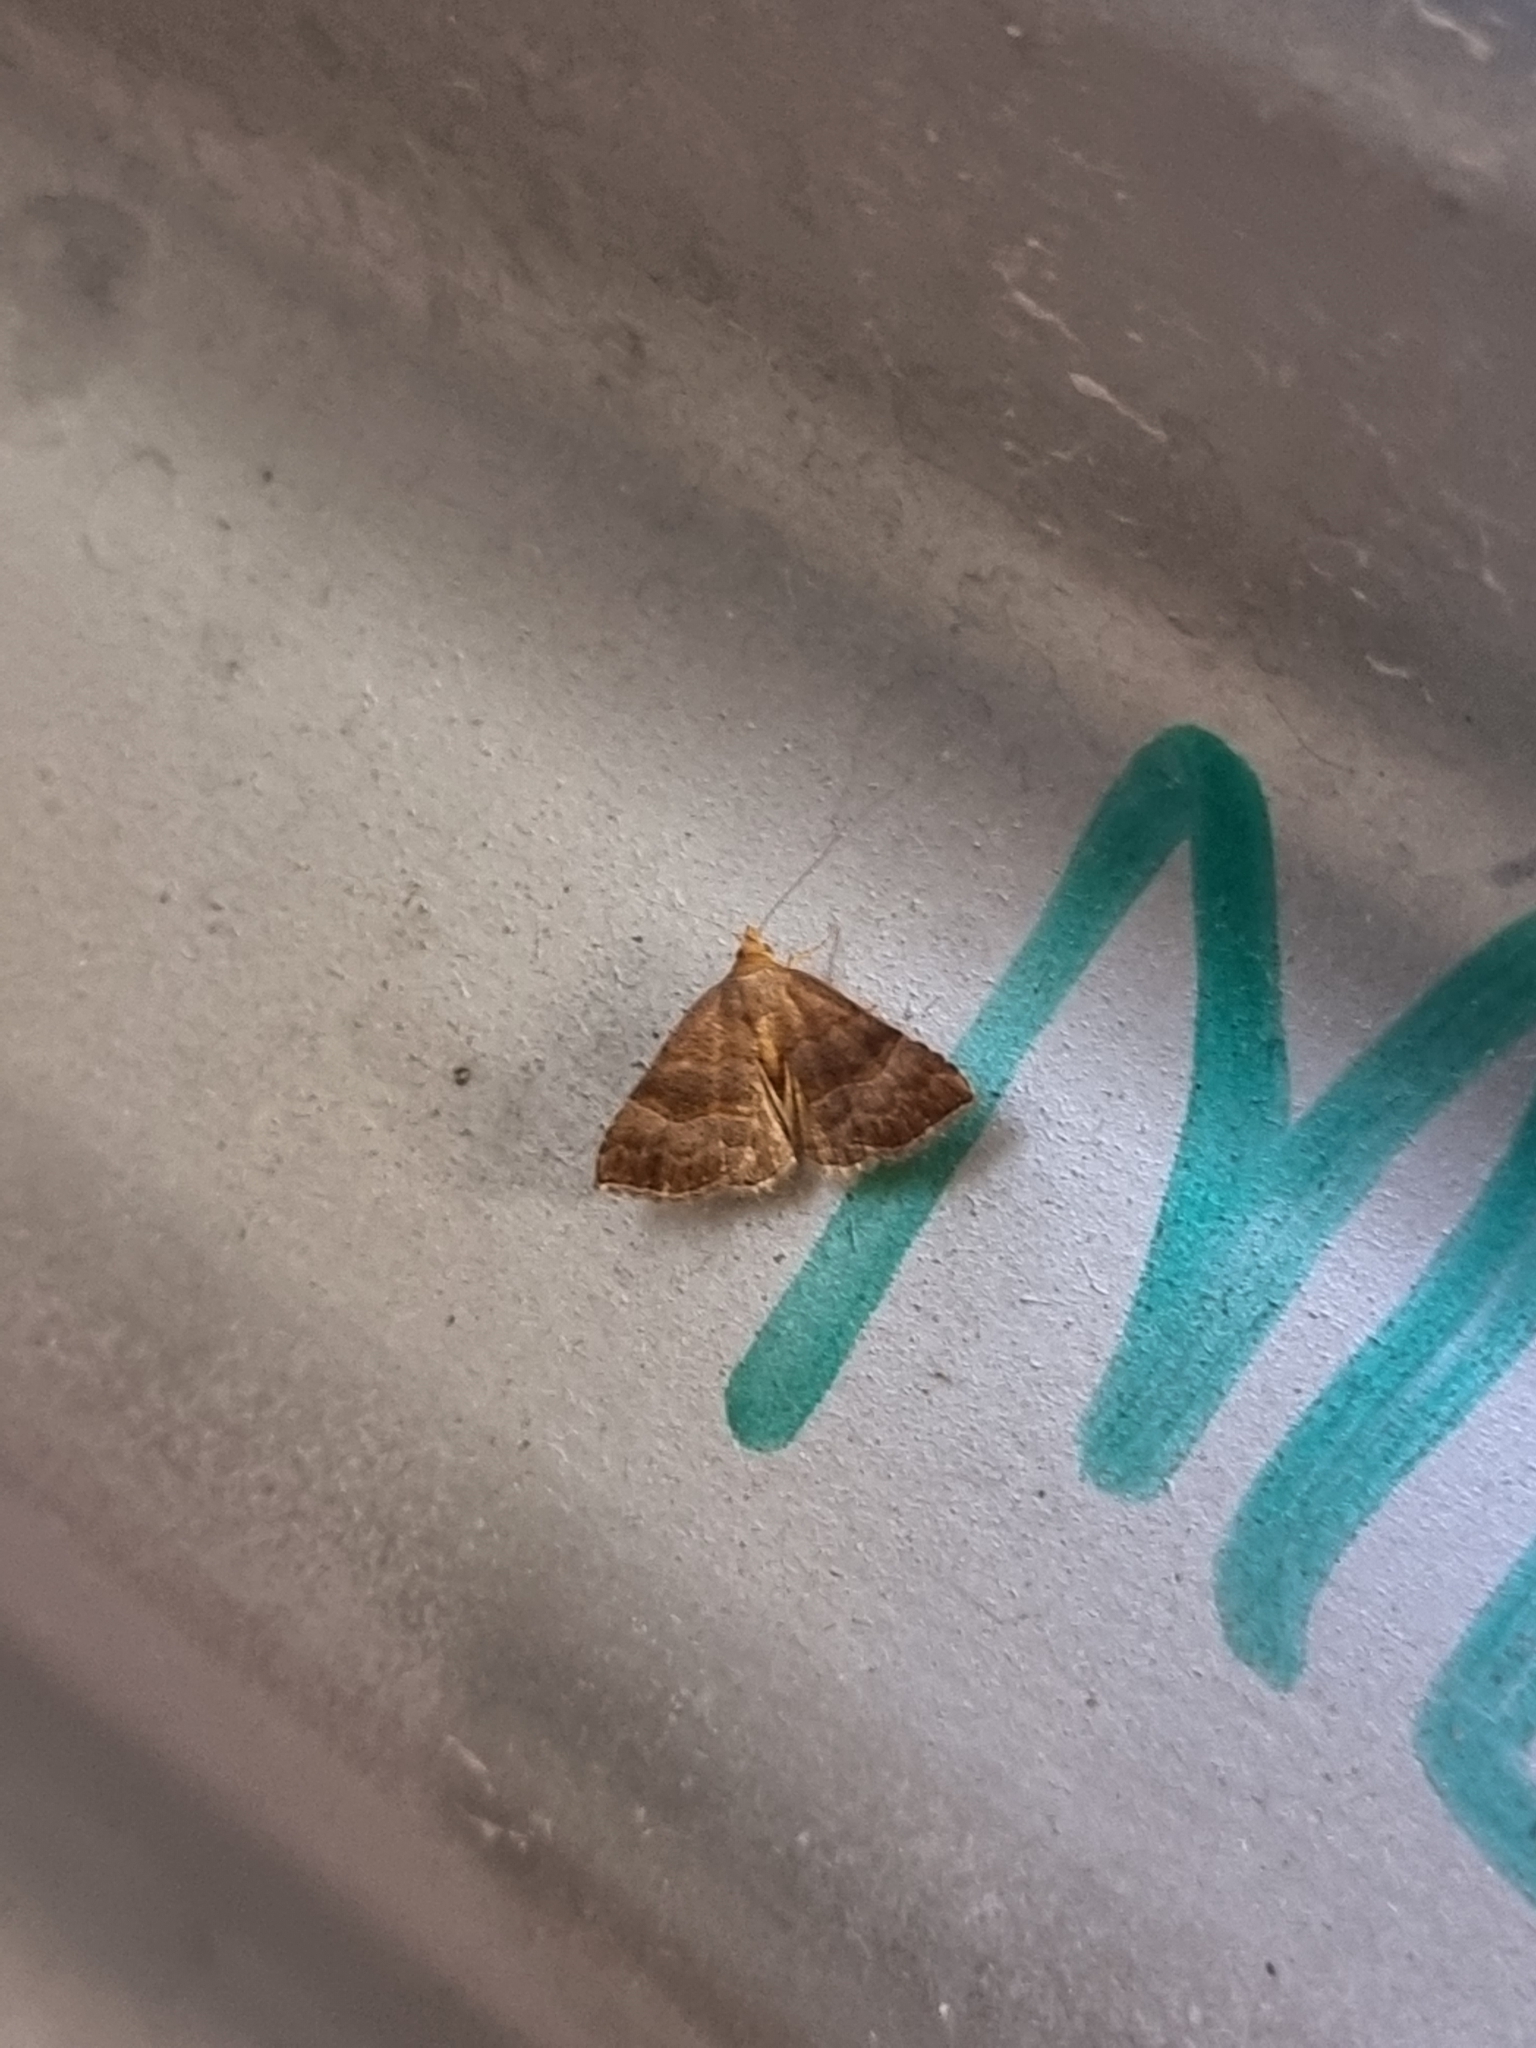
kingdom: Animalia
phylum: Arthropoda
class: Insecta
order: Lepidoptera
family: Erebidae
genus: Meranda
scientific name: Meranda susialis
